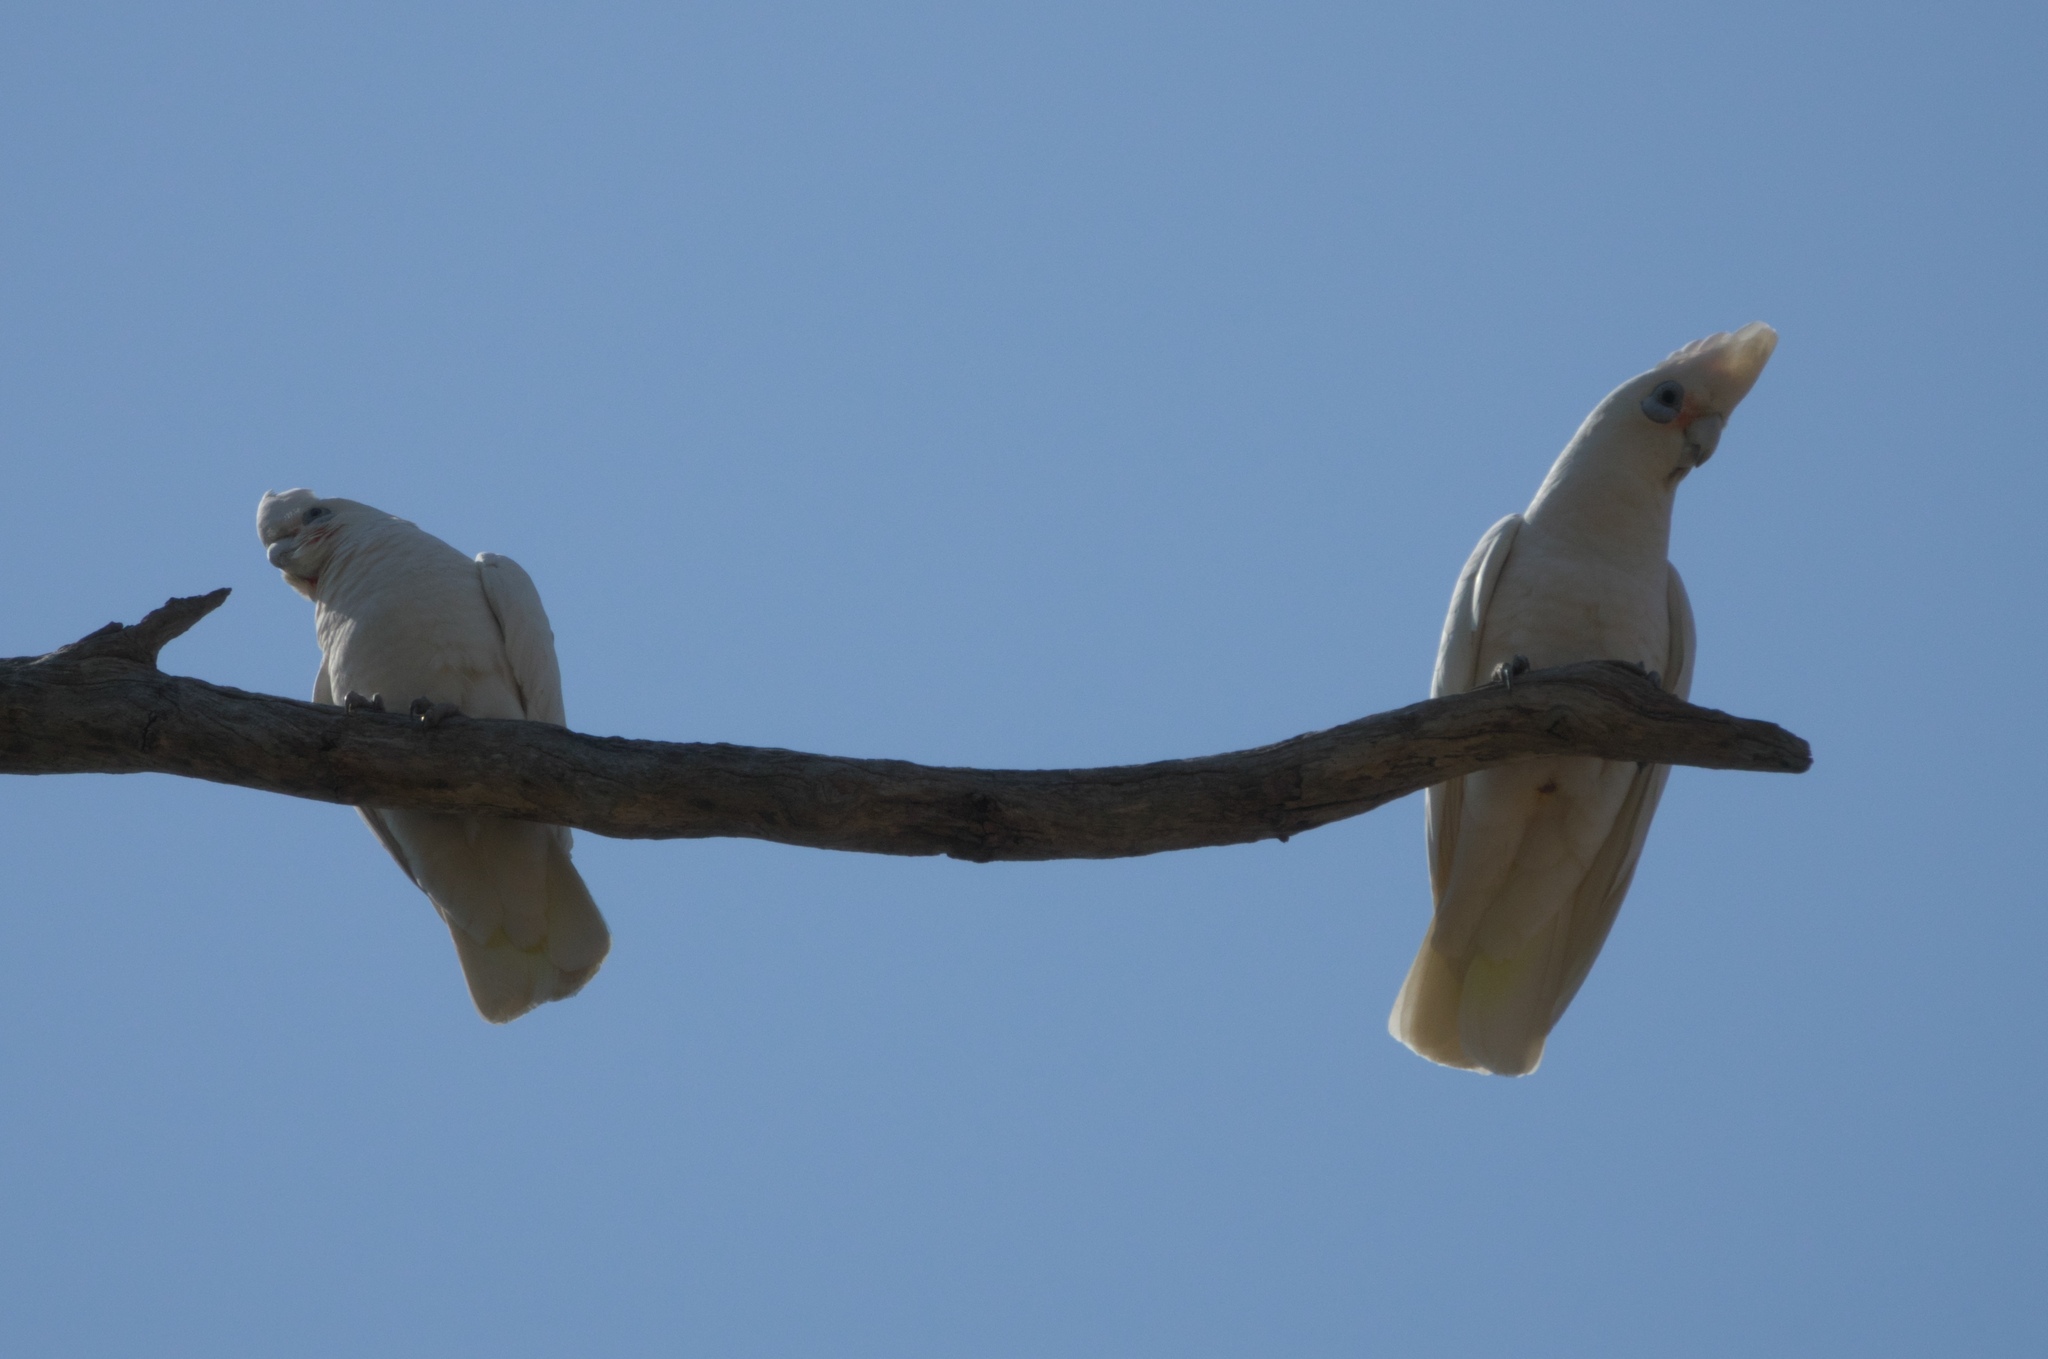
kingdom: Animalia
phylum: Chordata
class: Aves
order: Psittaciformes
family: Psittacidae
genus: Cacatua
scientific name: Cacatua sanguinea
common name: Little corella
